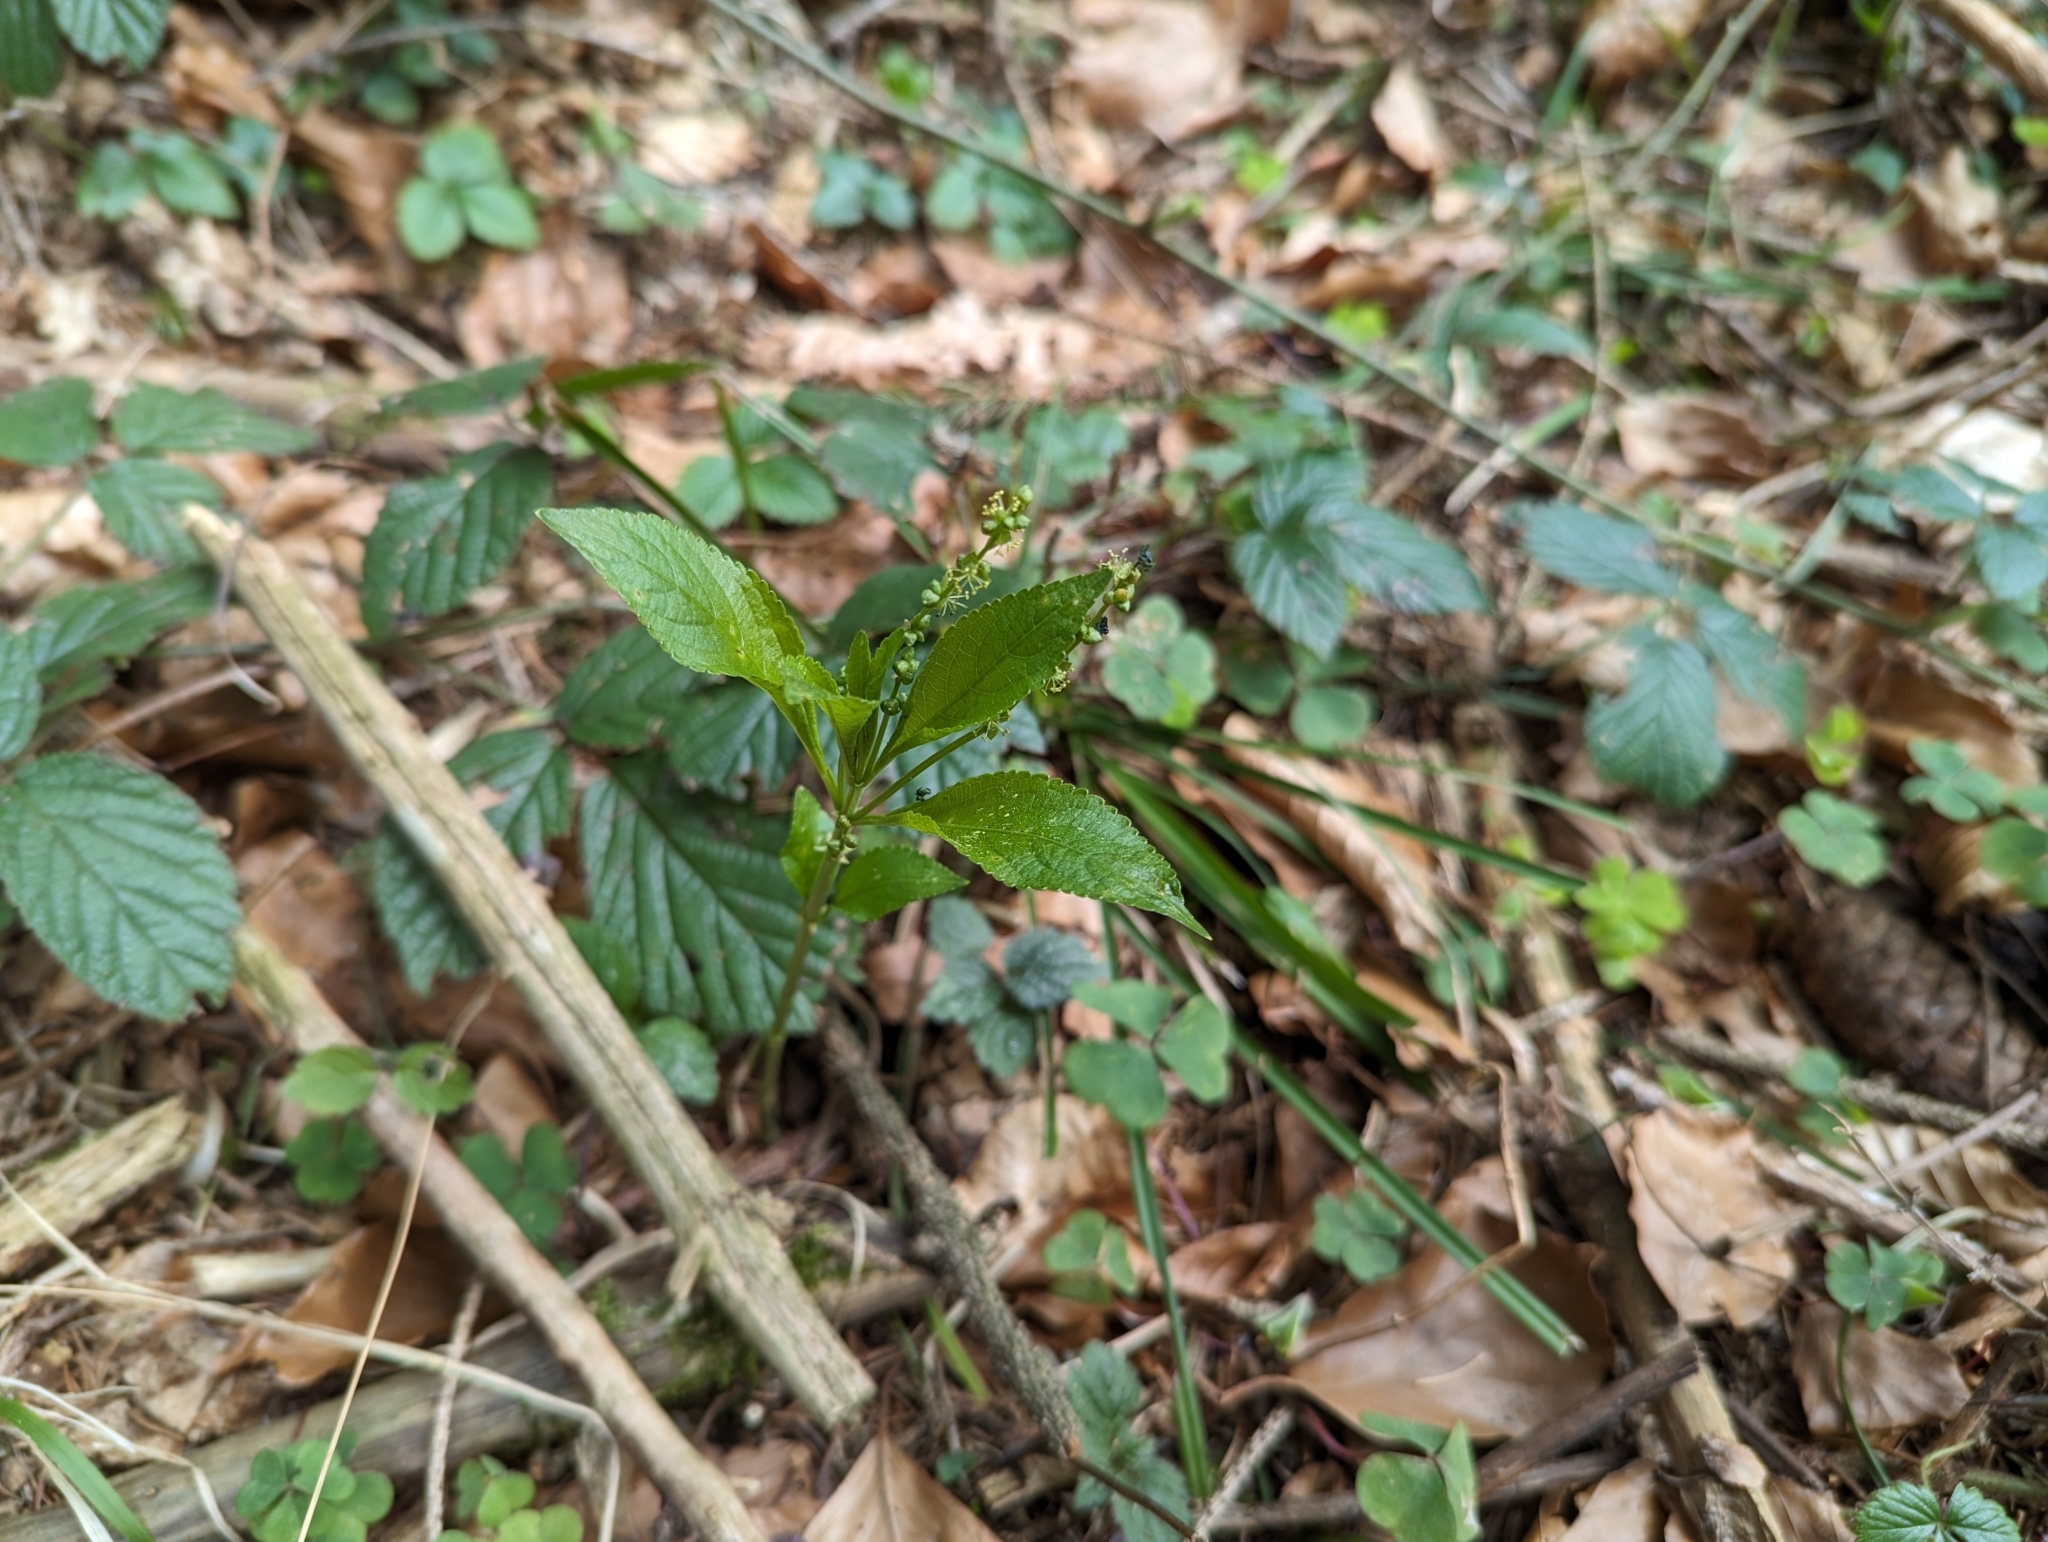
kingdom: Plantae
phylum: Tracheophyta
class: Magnoliopsida
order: Malpighiales
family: Euphorbiaceae
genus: Mercurialis
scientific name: Mercurialis perennis
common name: Dog mercury
